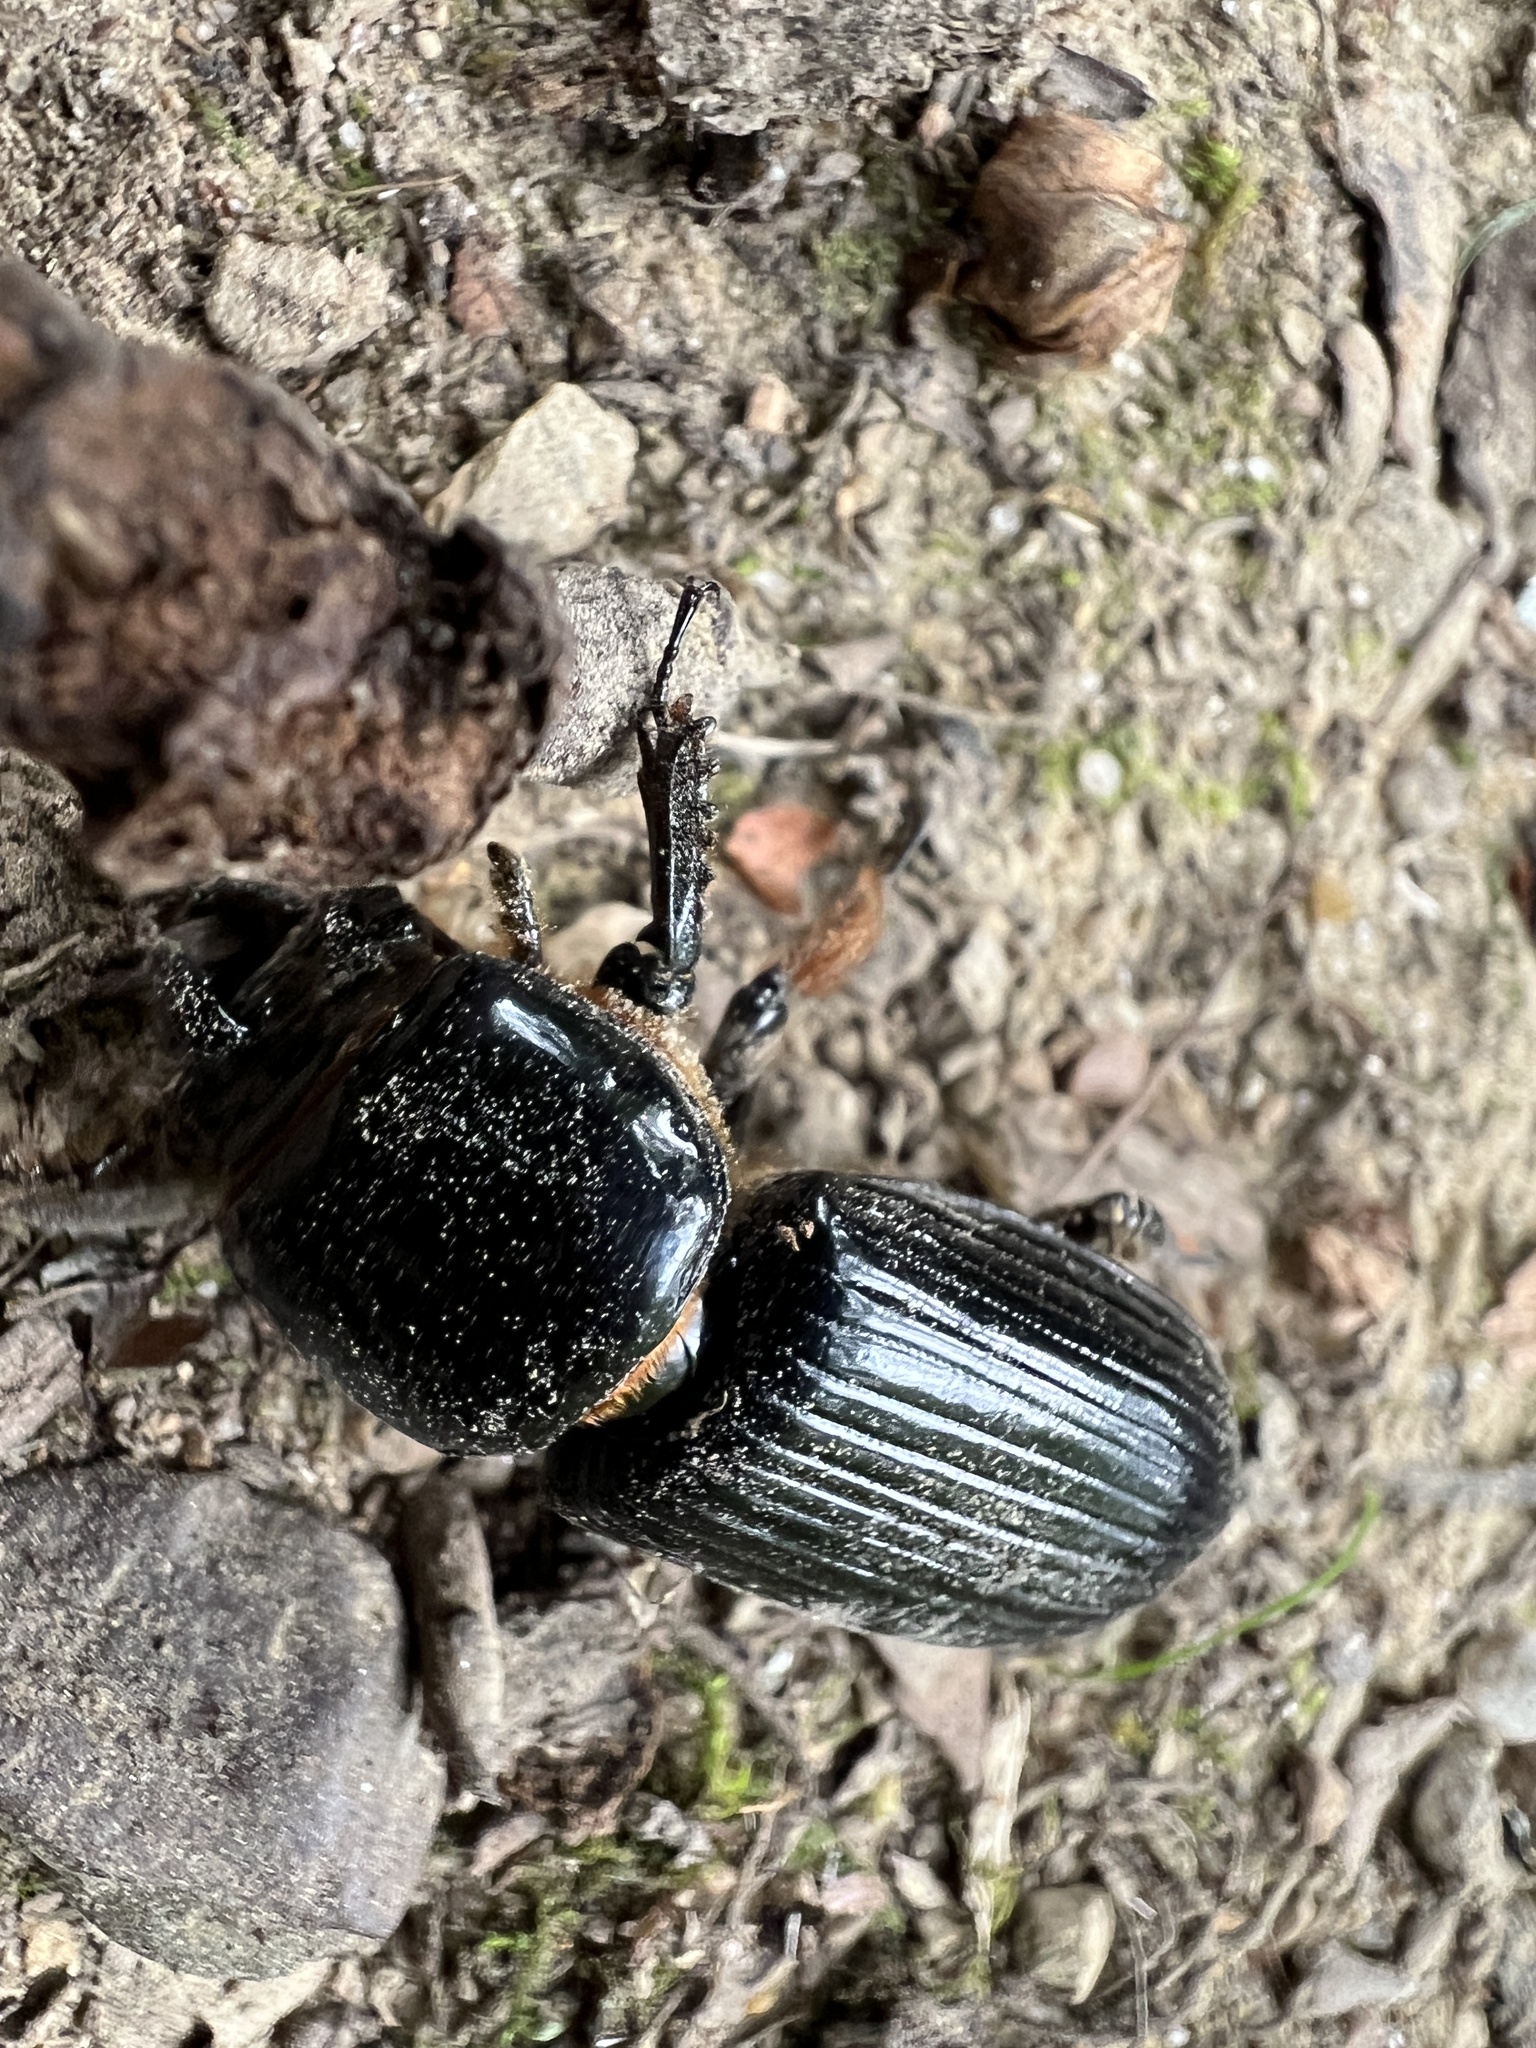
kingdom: Animalia
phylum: Arthropoda
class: Insecta
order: Coleoptera
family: Passalidae
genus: Odontotaenius
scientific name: Odontotaenius disjunctus
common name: Patent leather beetle
